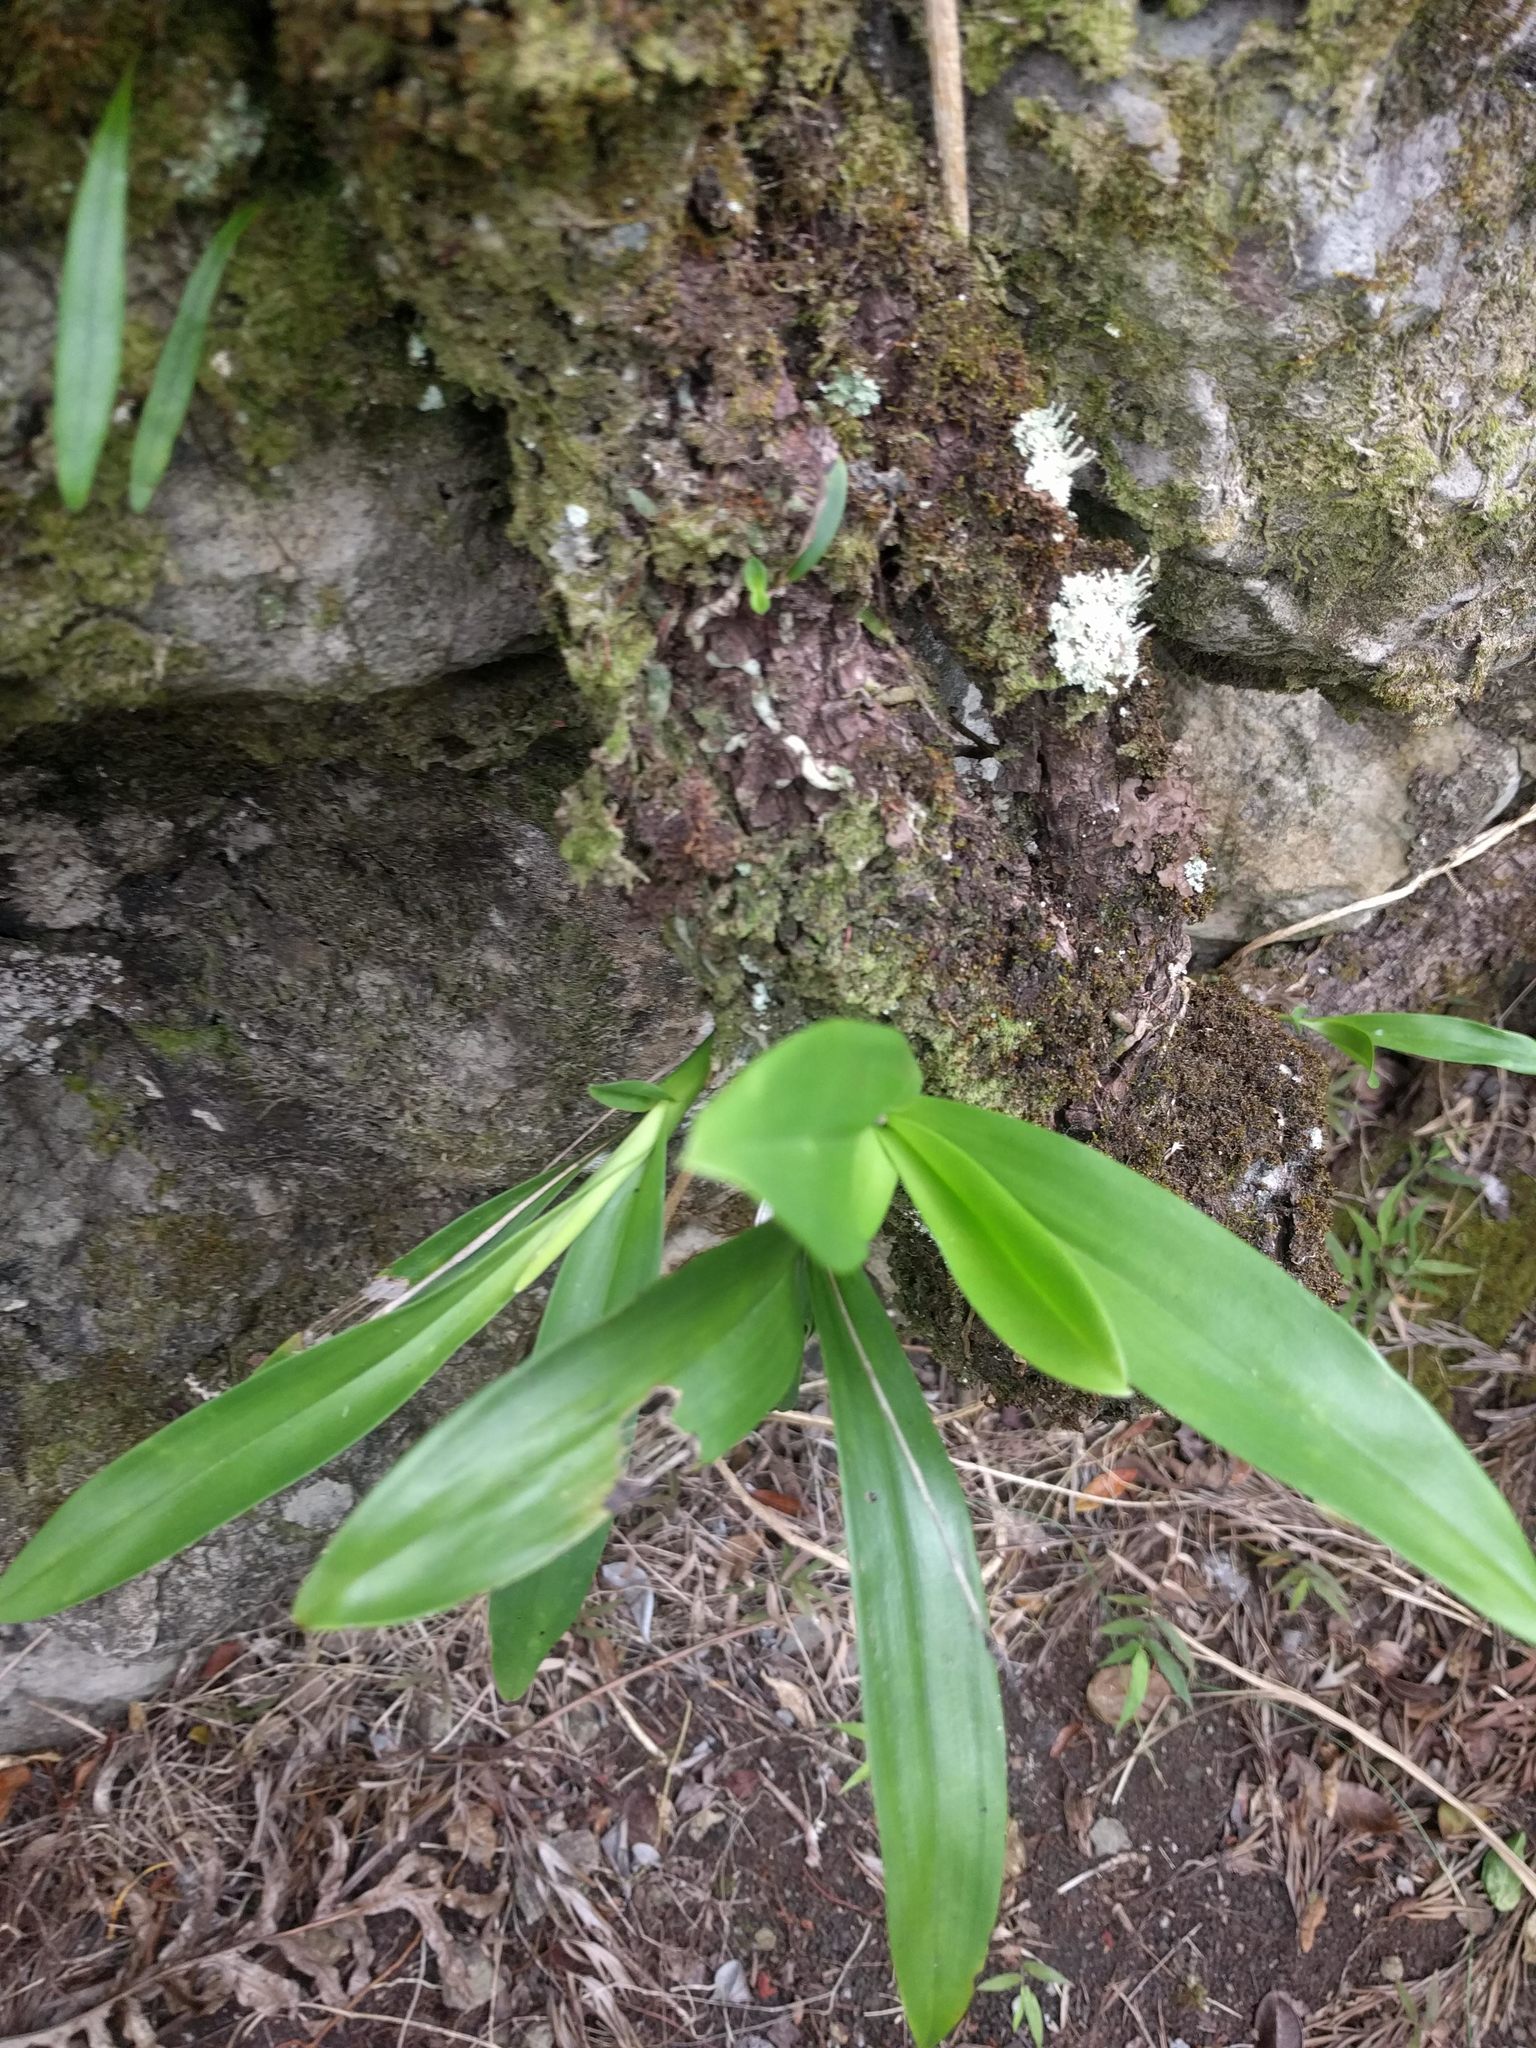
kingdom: Plantae
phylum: Tracheophyta
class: Liliopsida
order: Asparagales
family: Orchidaceae
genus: Polystachya
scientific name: Polystachya concreta
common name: Greater yellowspike orchid
